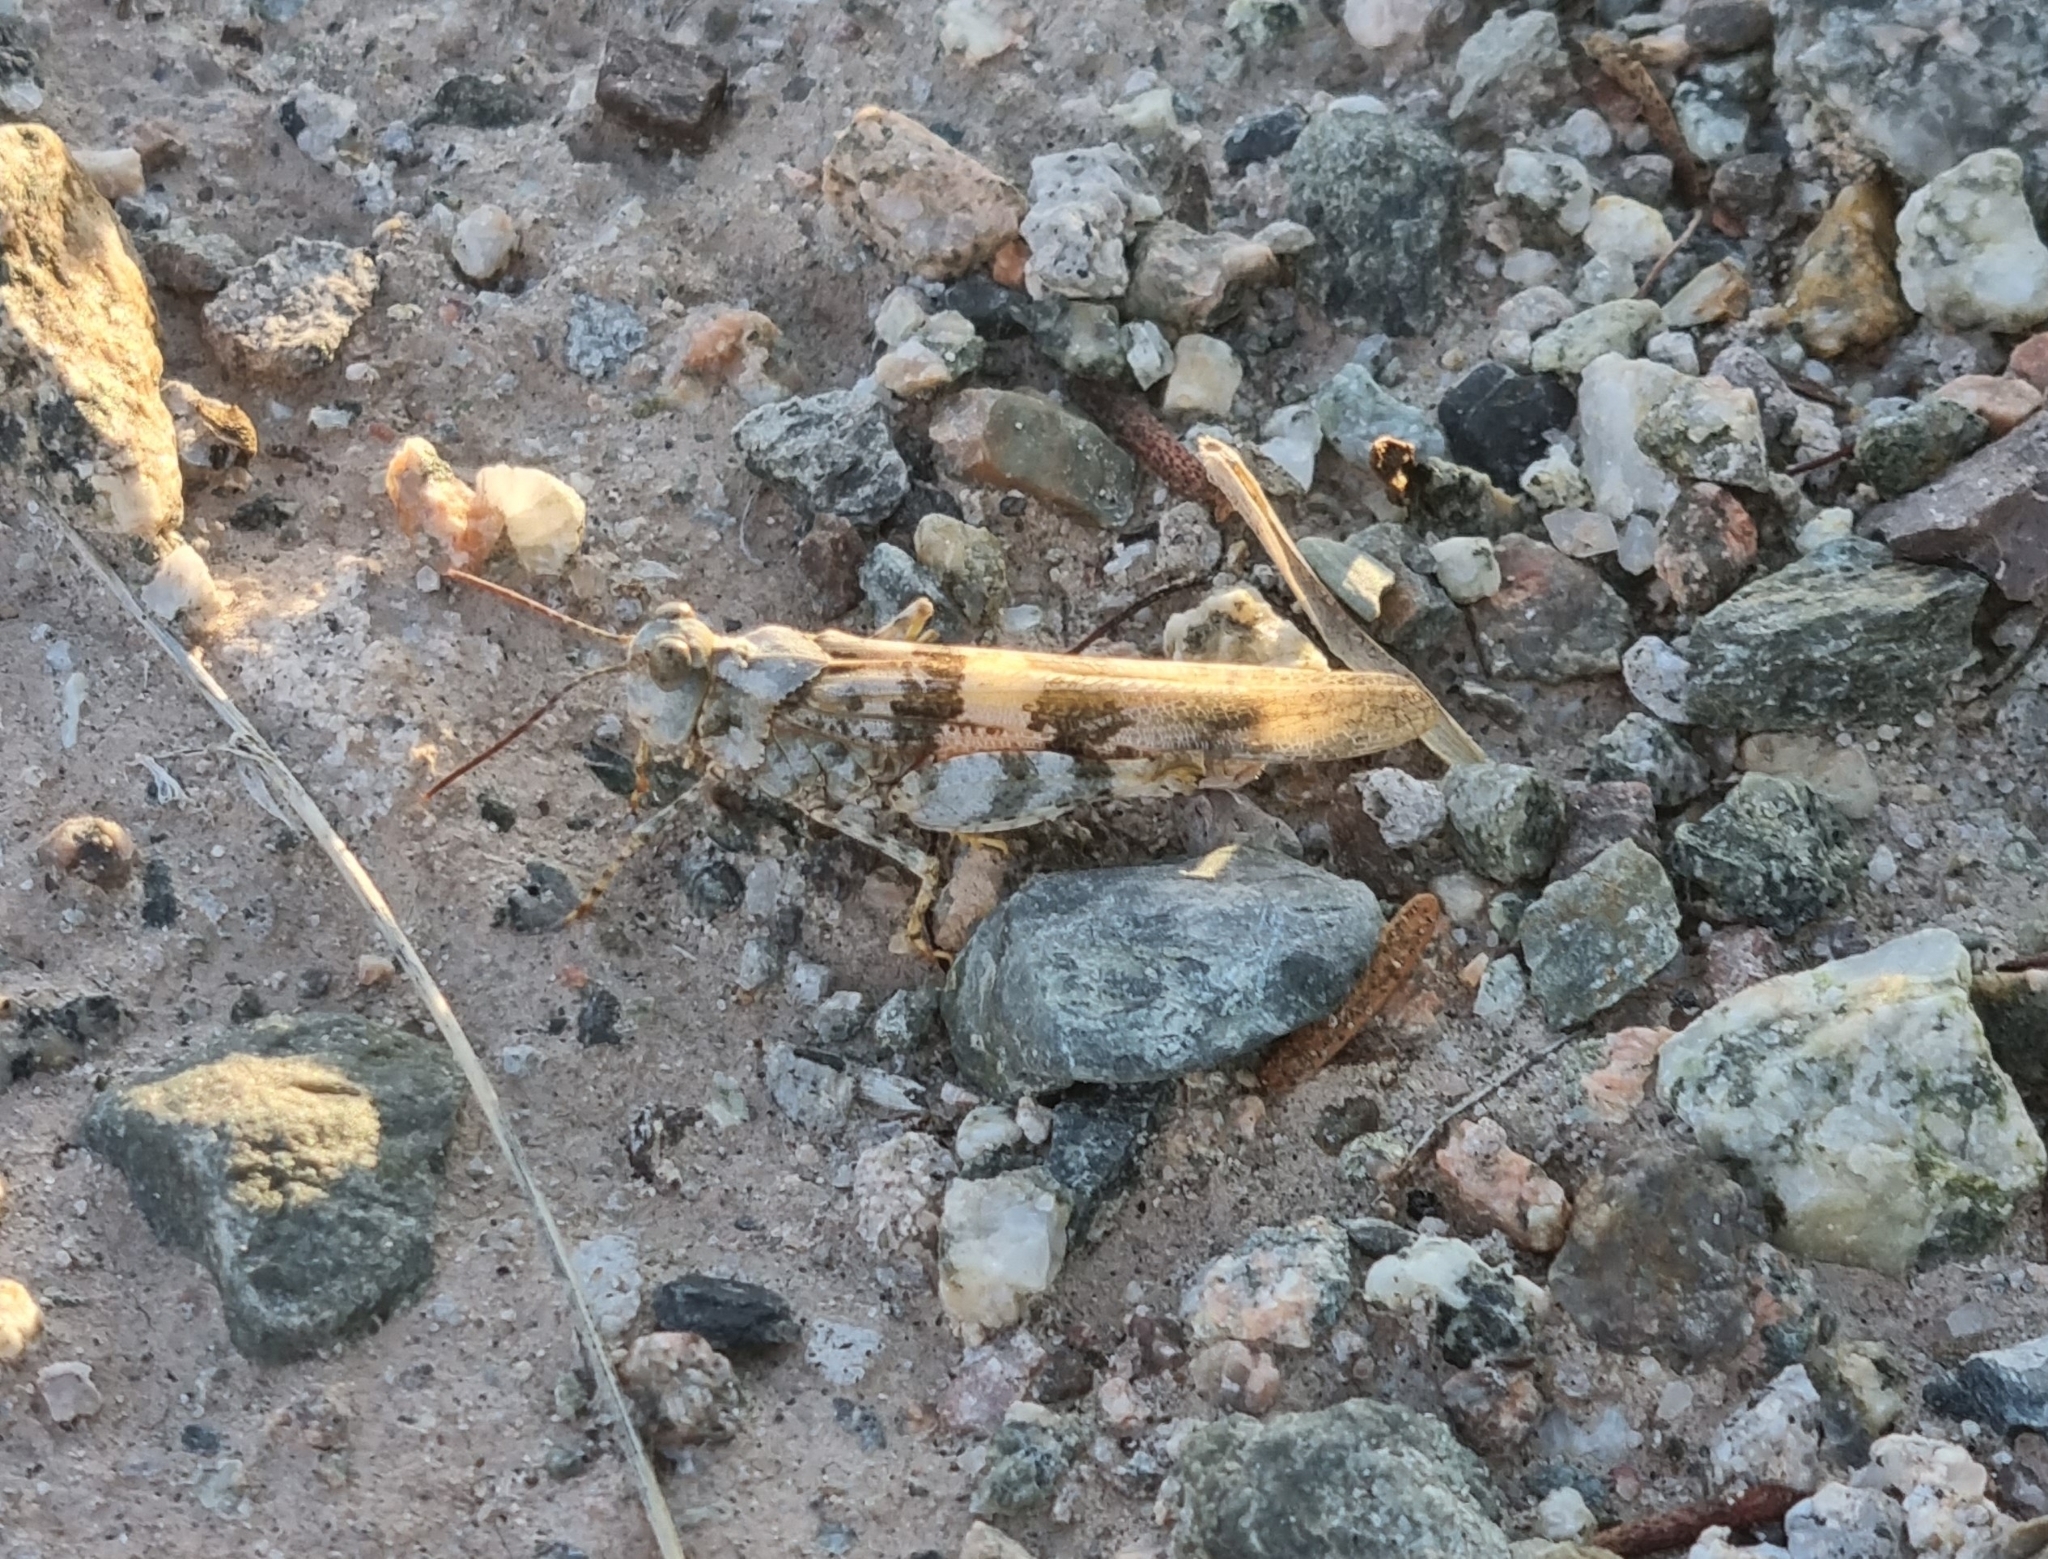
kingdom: Animalia
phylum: Arthropoda
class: Insecta
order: Orthoptera
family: Acrididae
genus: Trimerotropis
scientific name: Trimerotropis pallidipennis
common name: Pallid-winged grasshopper
